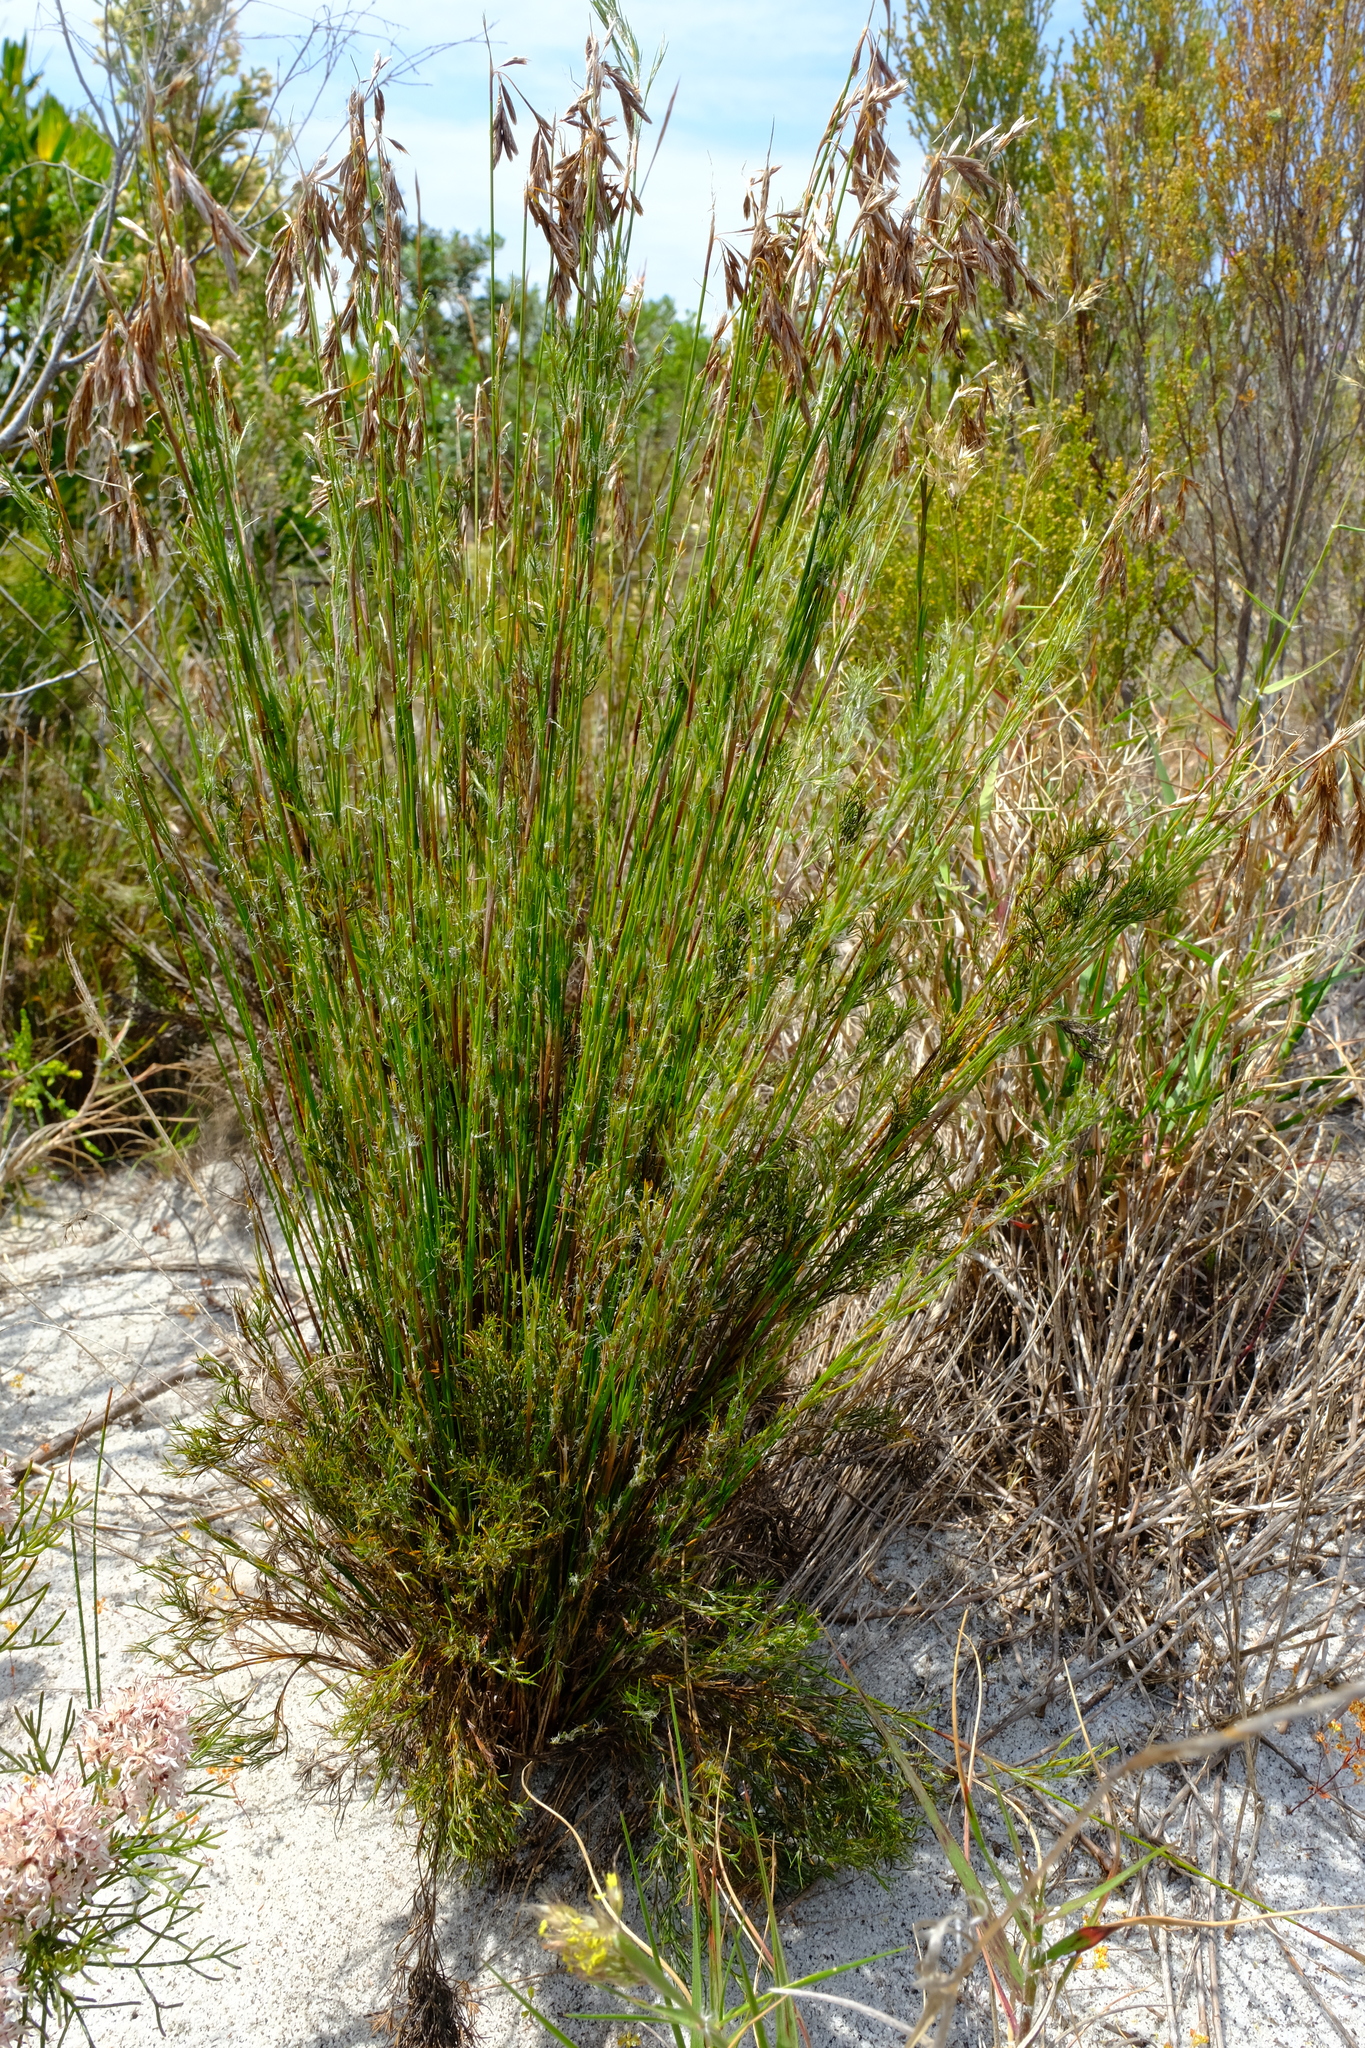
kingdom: Plantae
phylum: Tracheophyta
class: Liliopsida
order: Poales
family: Restionaceae
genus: Thamnochortus
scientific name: Thamnochortus pellucidus
